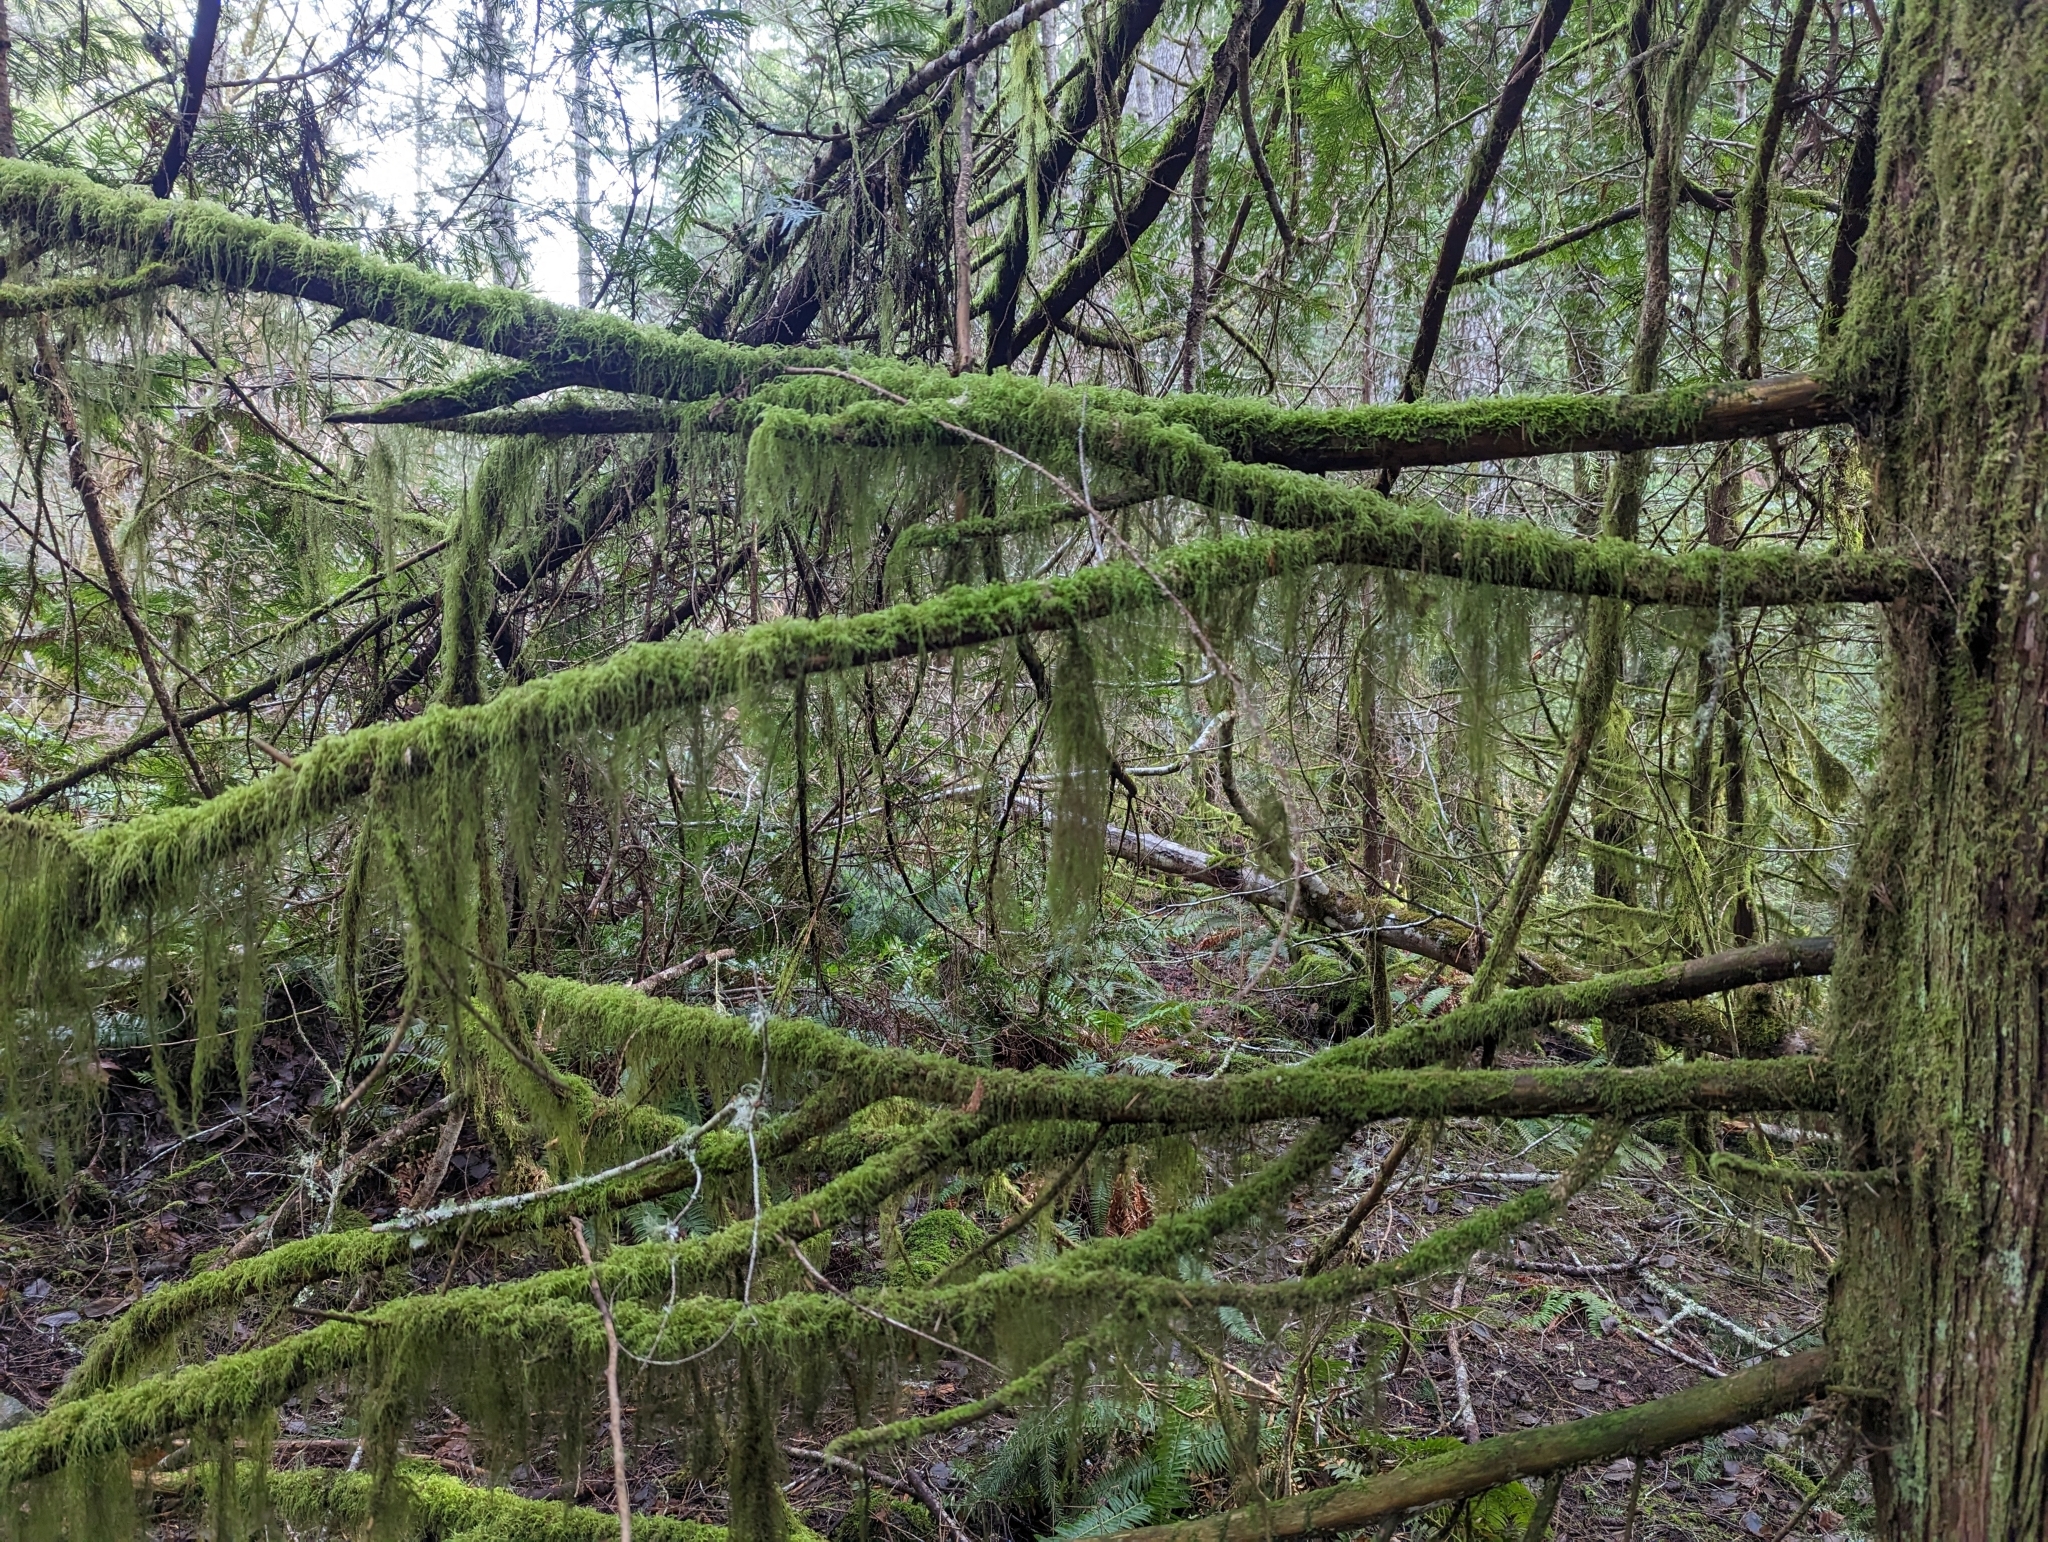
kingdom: Plantae
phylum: Bryophyta
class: Bryopsida
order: Hypnales
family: Lembophyllaceae
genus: Pseudisothecium
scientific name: Pseudisothecium stoloniferum
